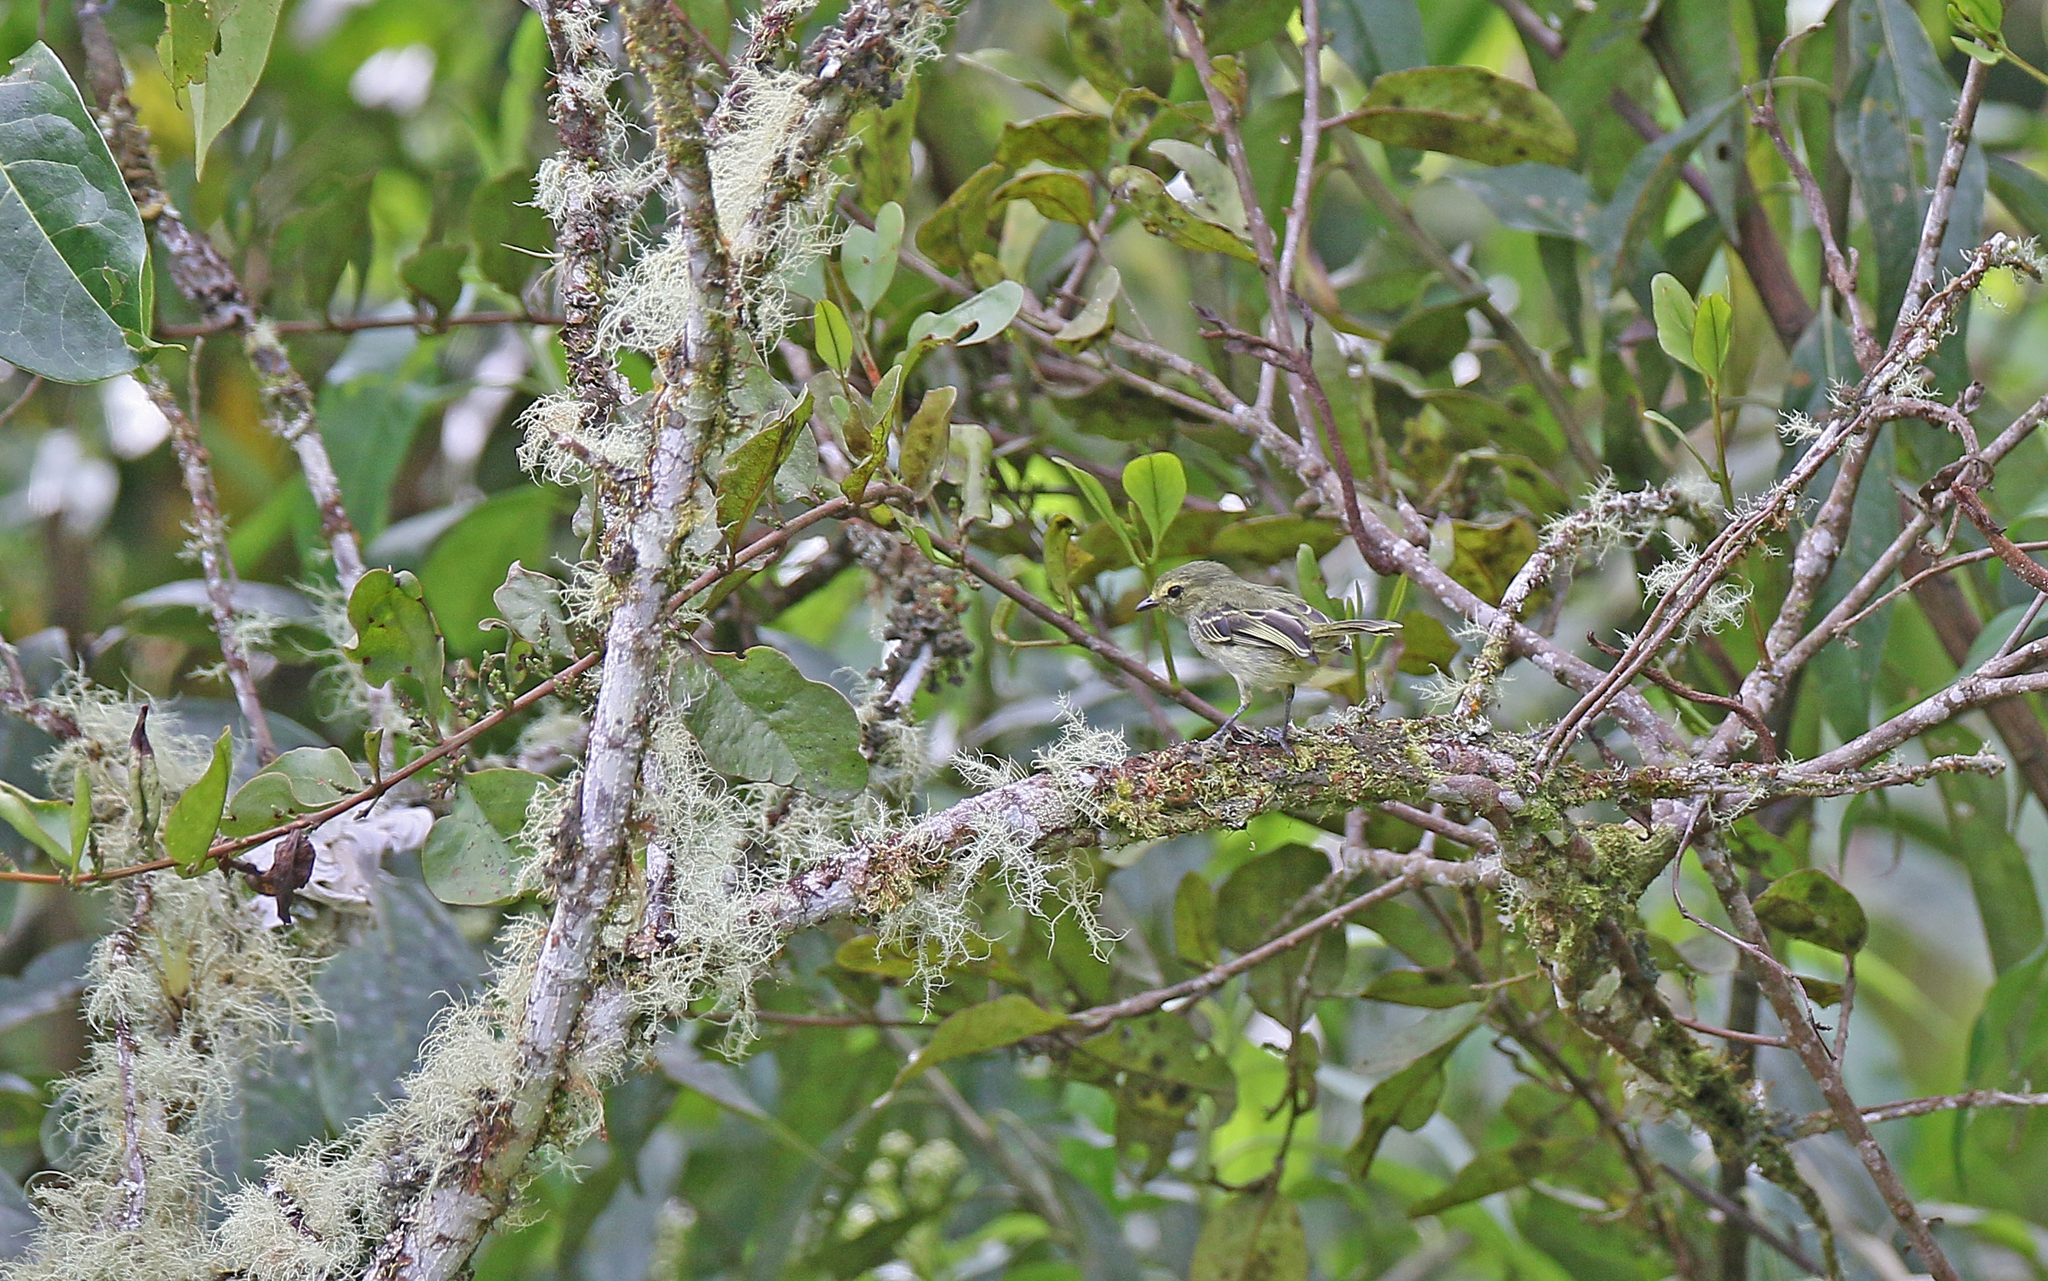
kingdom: Animalia
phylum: Chordata
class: Aves
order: Passeriformes
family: Tyrannidae
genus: Zimmerius
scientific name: Zimmerius chrysops
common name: Golden-faced tyrannulet
